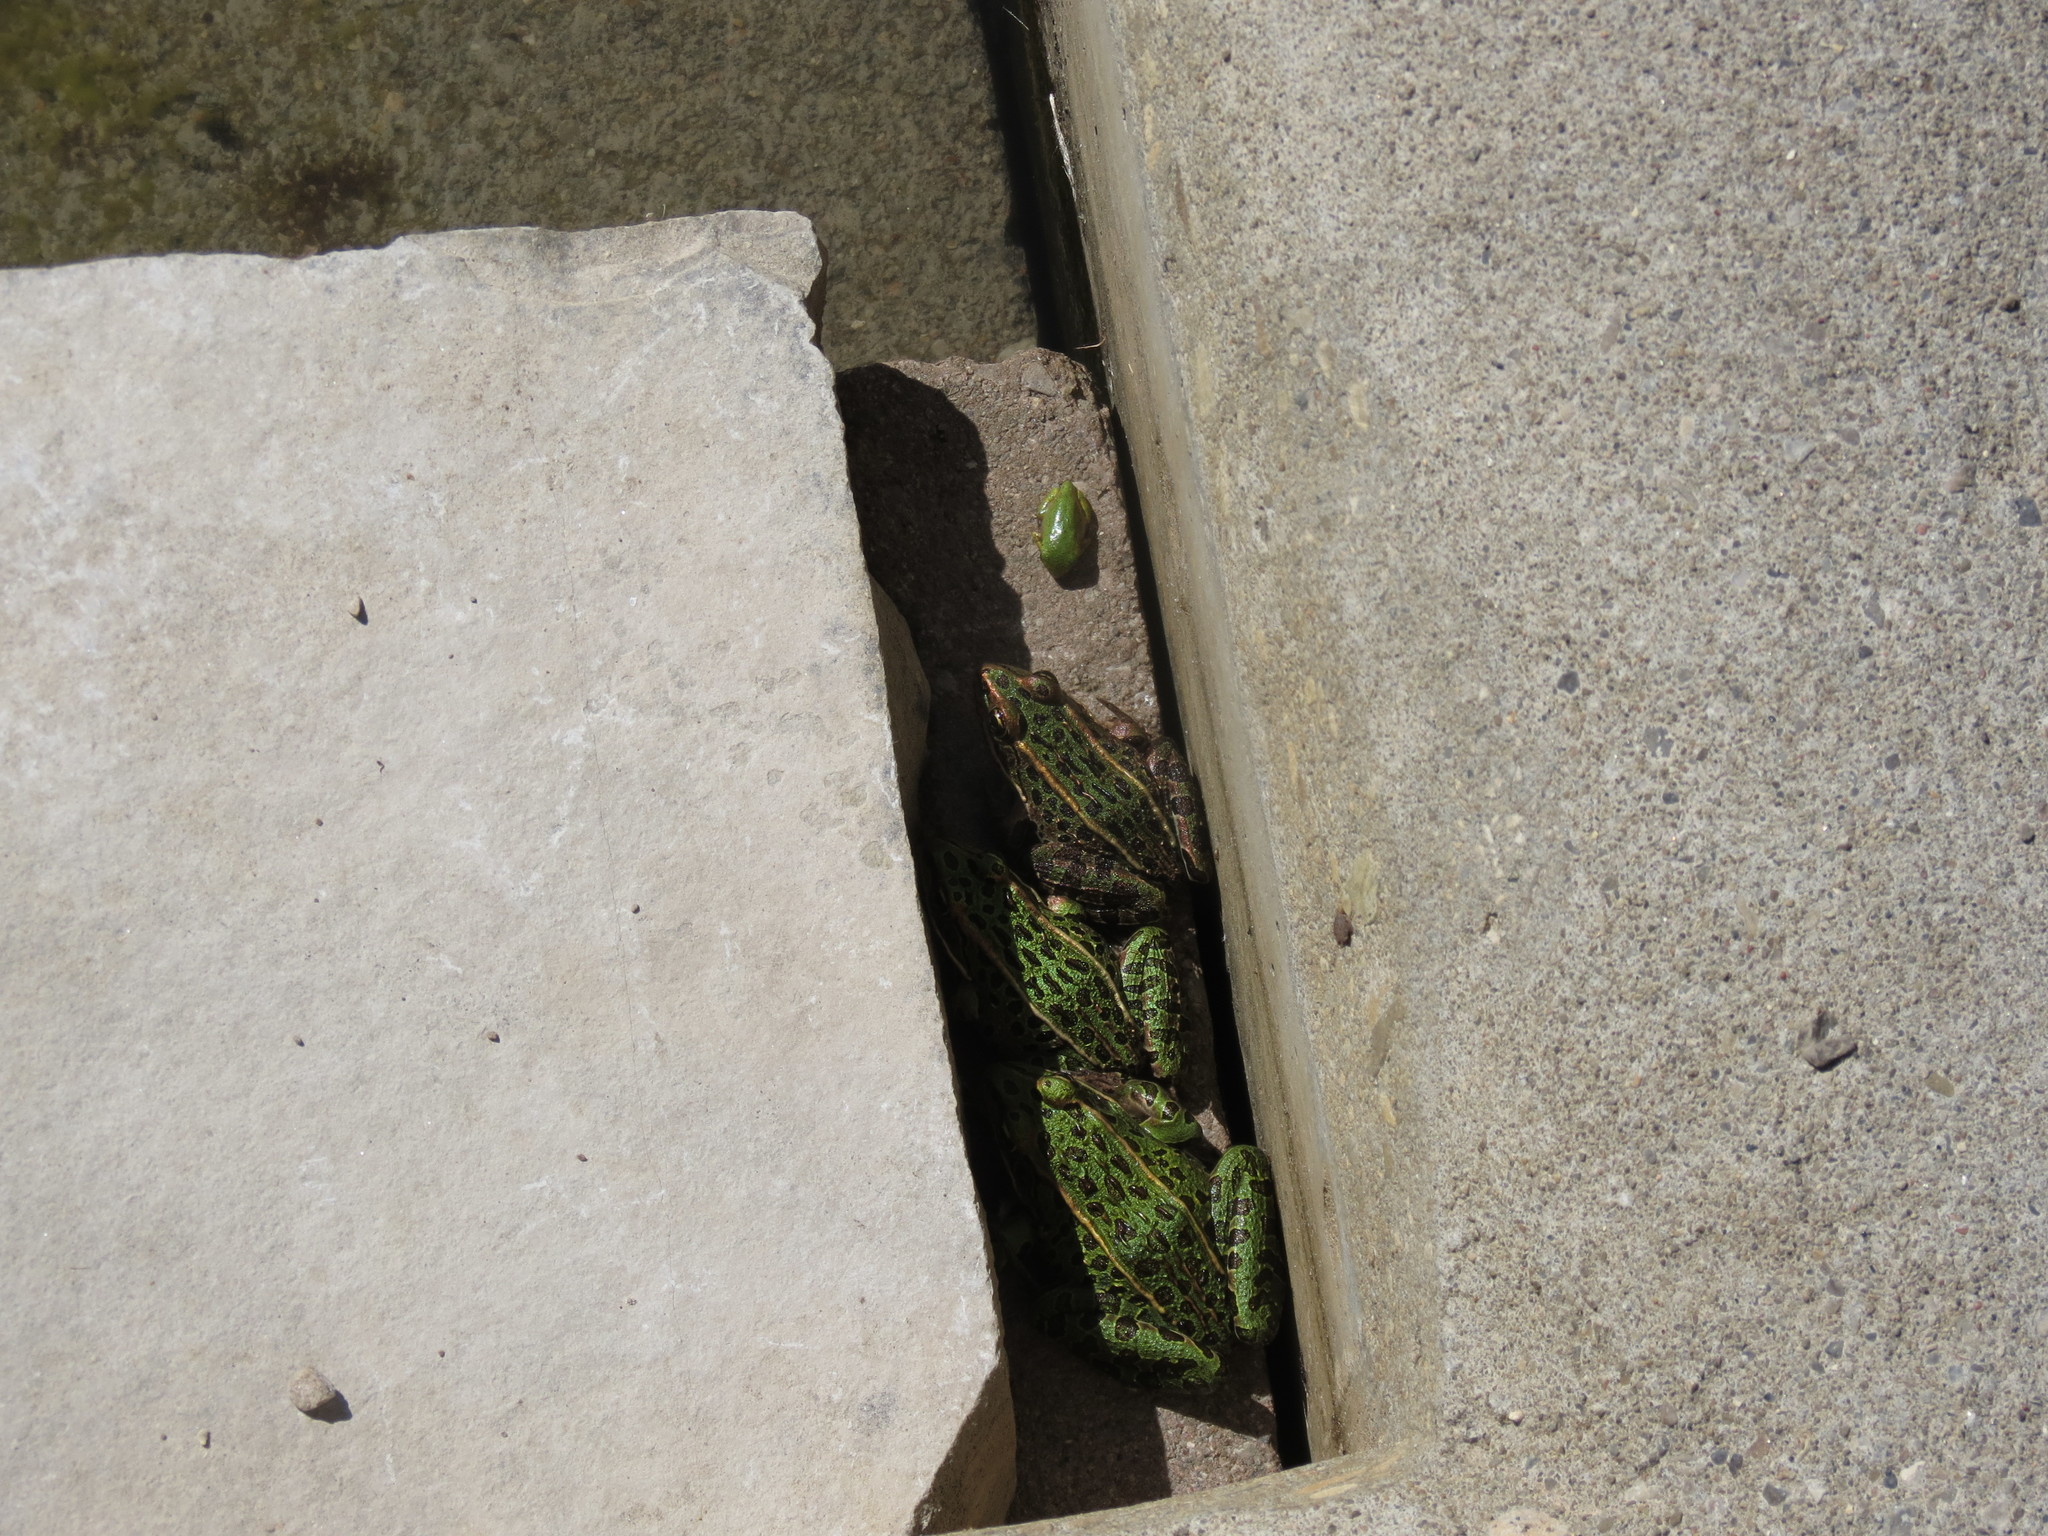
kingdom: Animalia
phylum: Chordata
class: Amphibia
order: Anura
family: Ranidae
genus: Lithobates
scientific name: Lithobates pipiens
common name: Northern leopard frog
